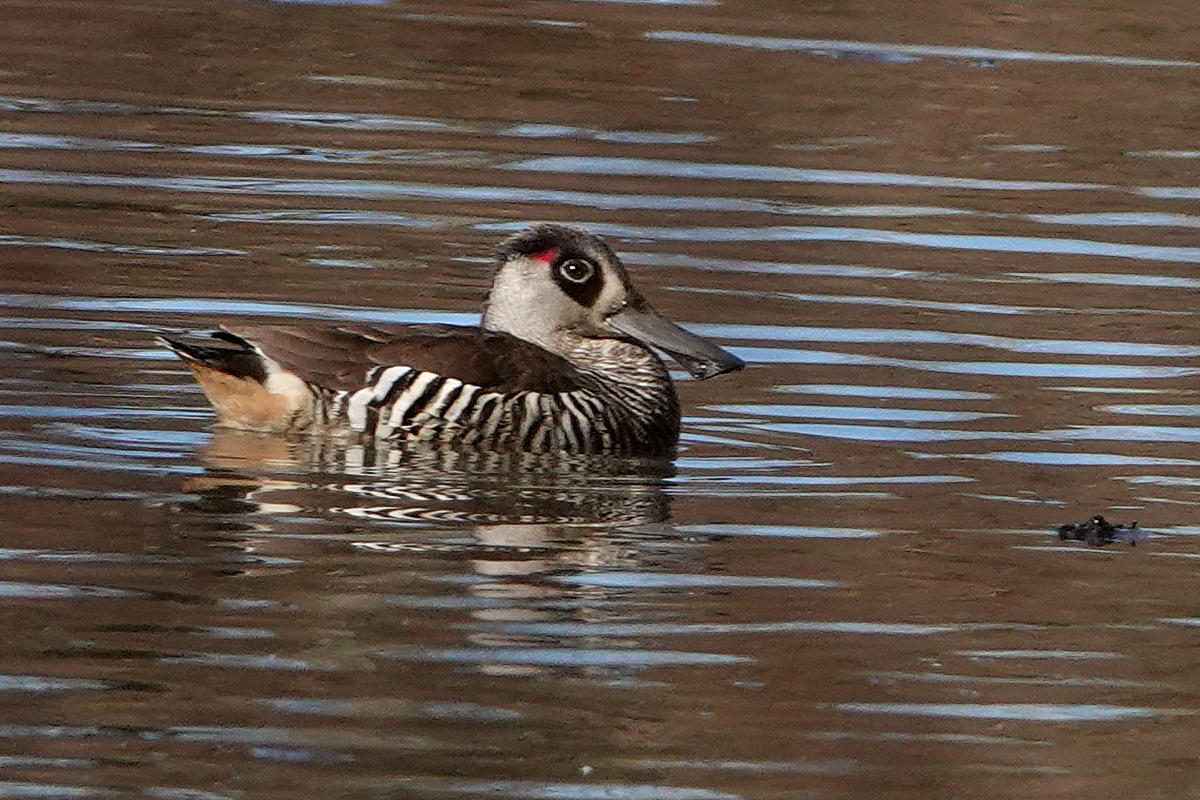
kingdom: Animalia
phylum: Chordata
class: Aves
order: Anseriformes
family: Anatidae
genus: Malacorhynchus
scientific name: Malacorhynchus membranaceus
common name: Pink-eared duck
